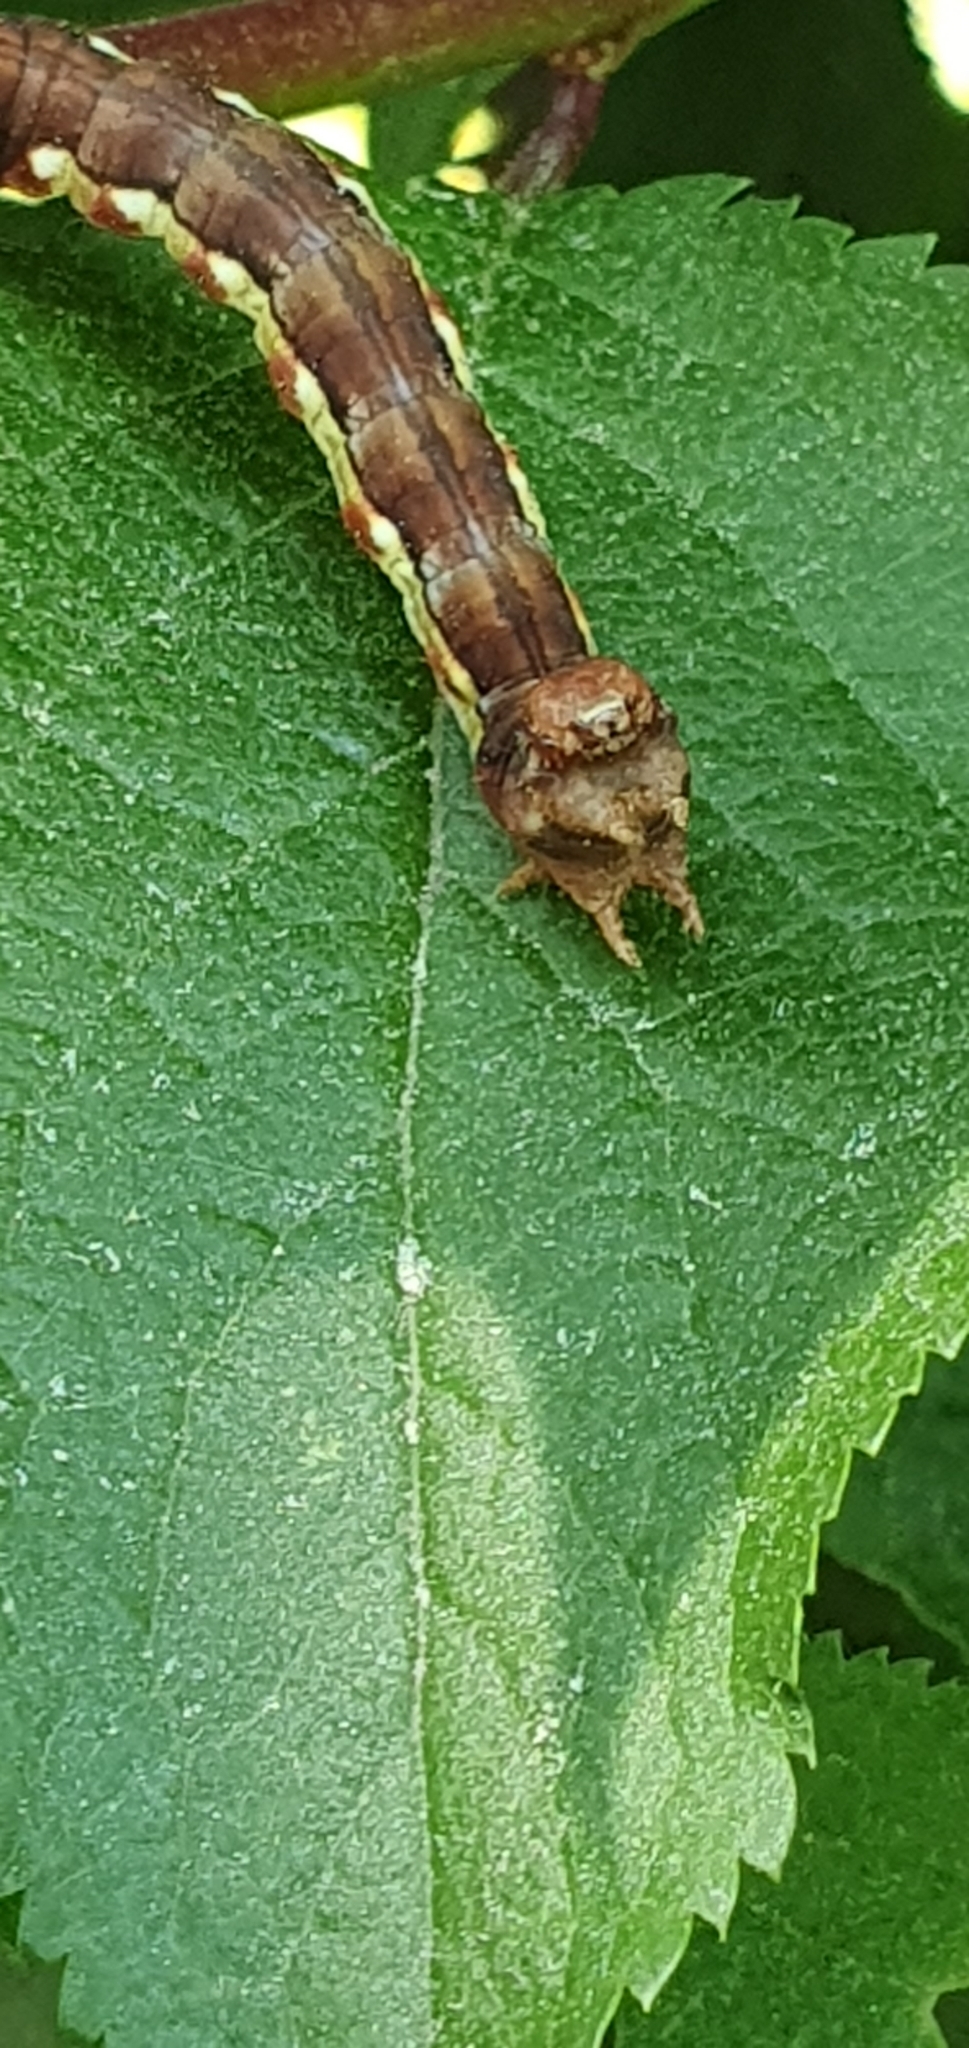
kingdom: Animalia
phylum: Arthropoda
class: Insecta
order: Lepidoptera
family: Geometridae
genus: Erannis
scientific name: Erannis defoliaria
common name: Mottled umber
